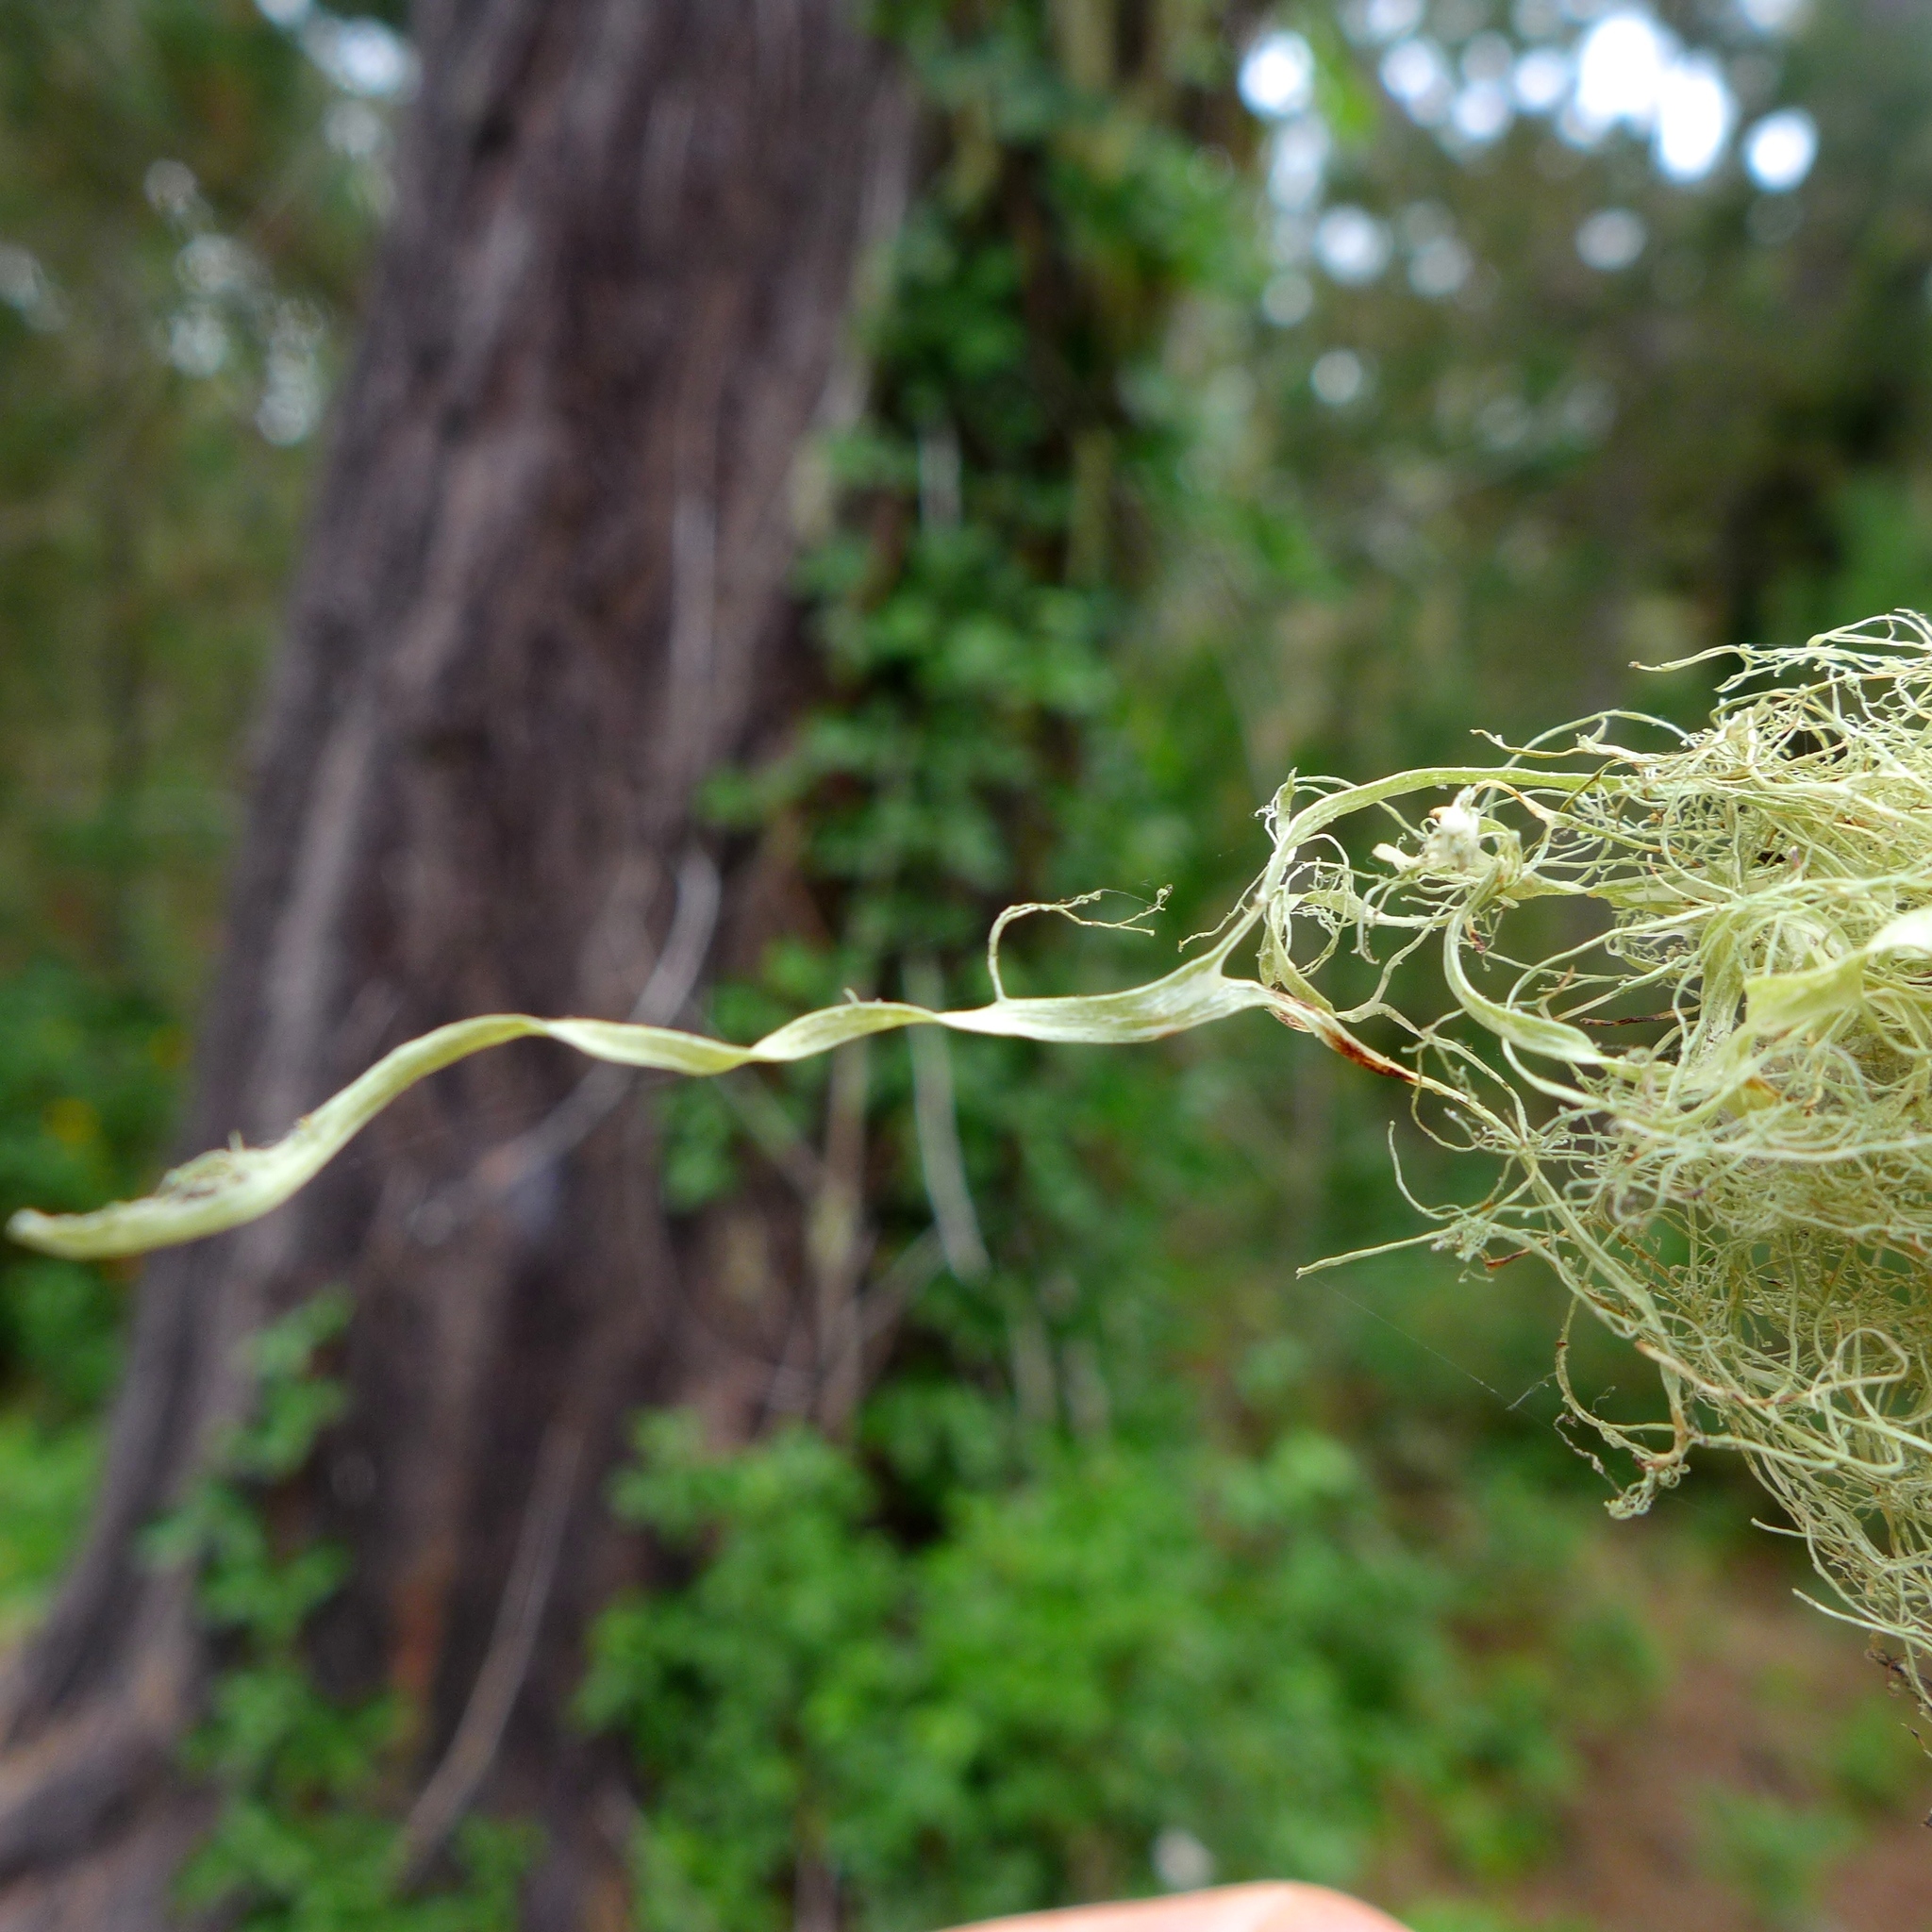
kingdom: Fungi
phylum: Ascomycota
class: Lecanoromycetes
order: Lecanorales
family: Ramalinaceae
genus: Ramalina
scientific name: Ramalina menziesii
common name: Lace lichen
